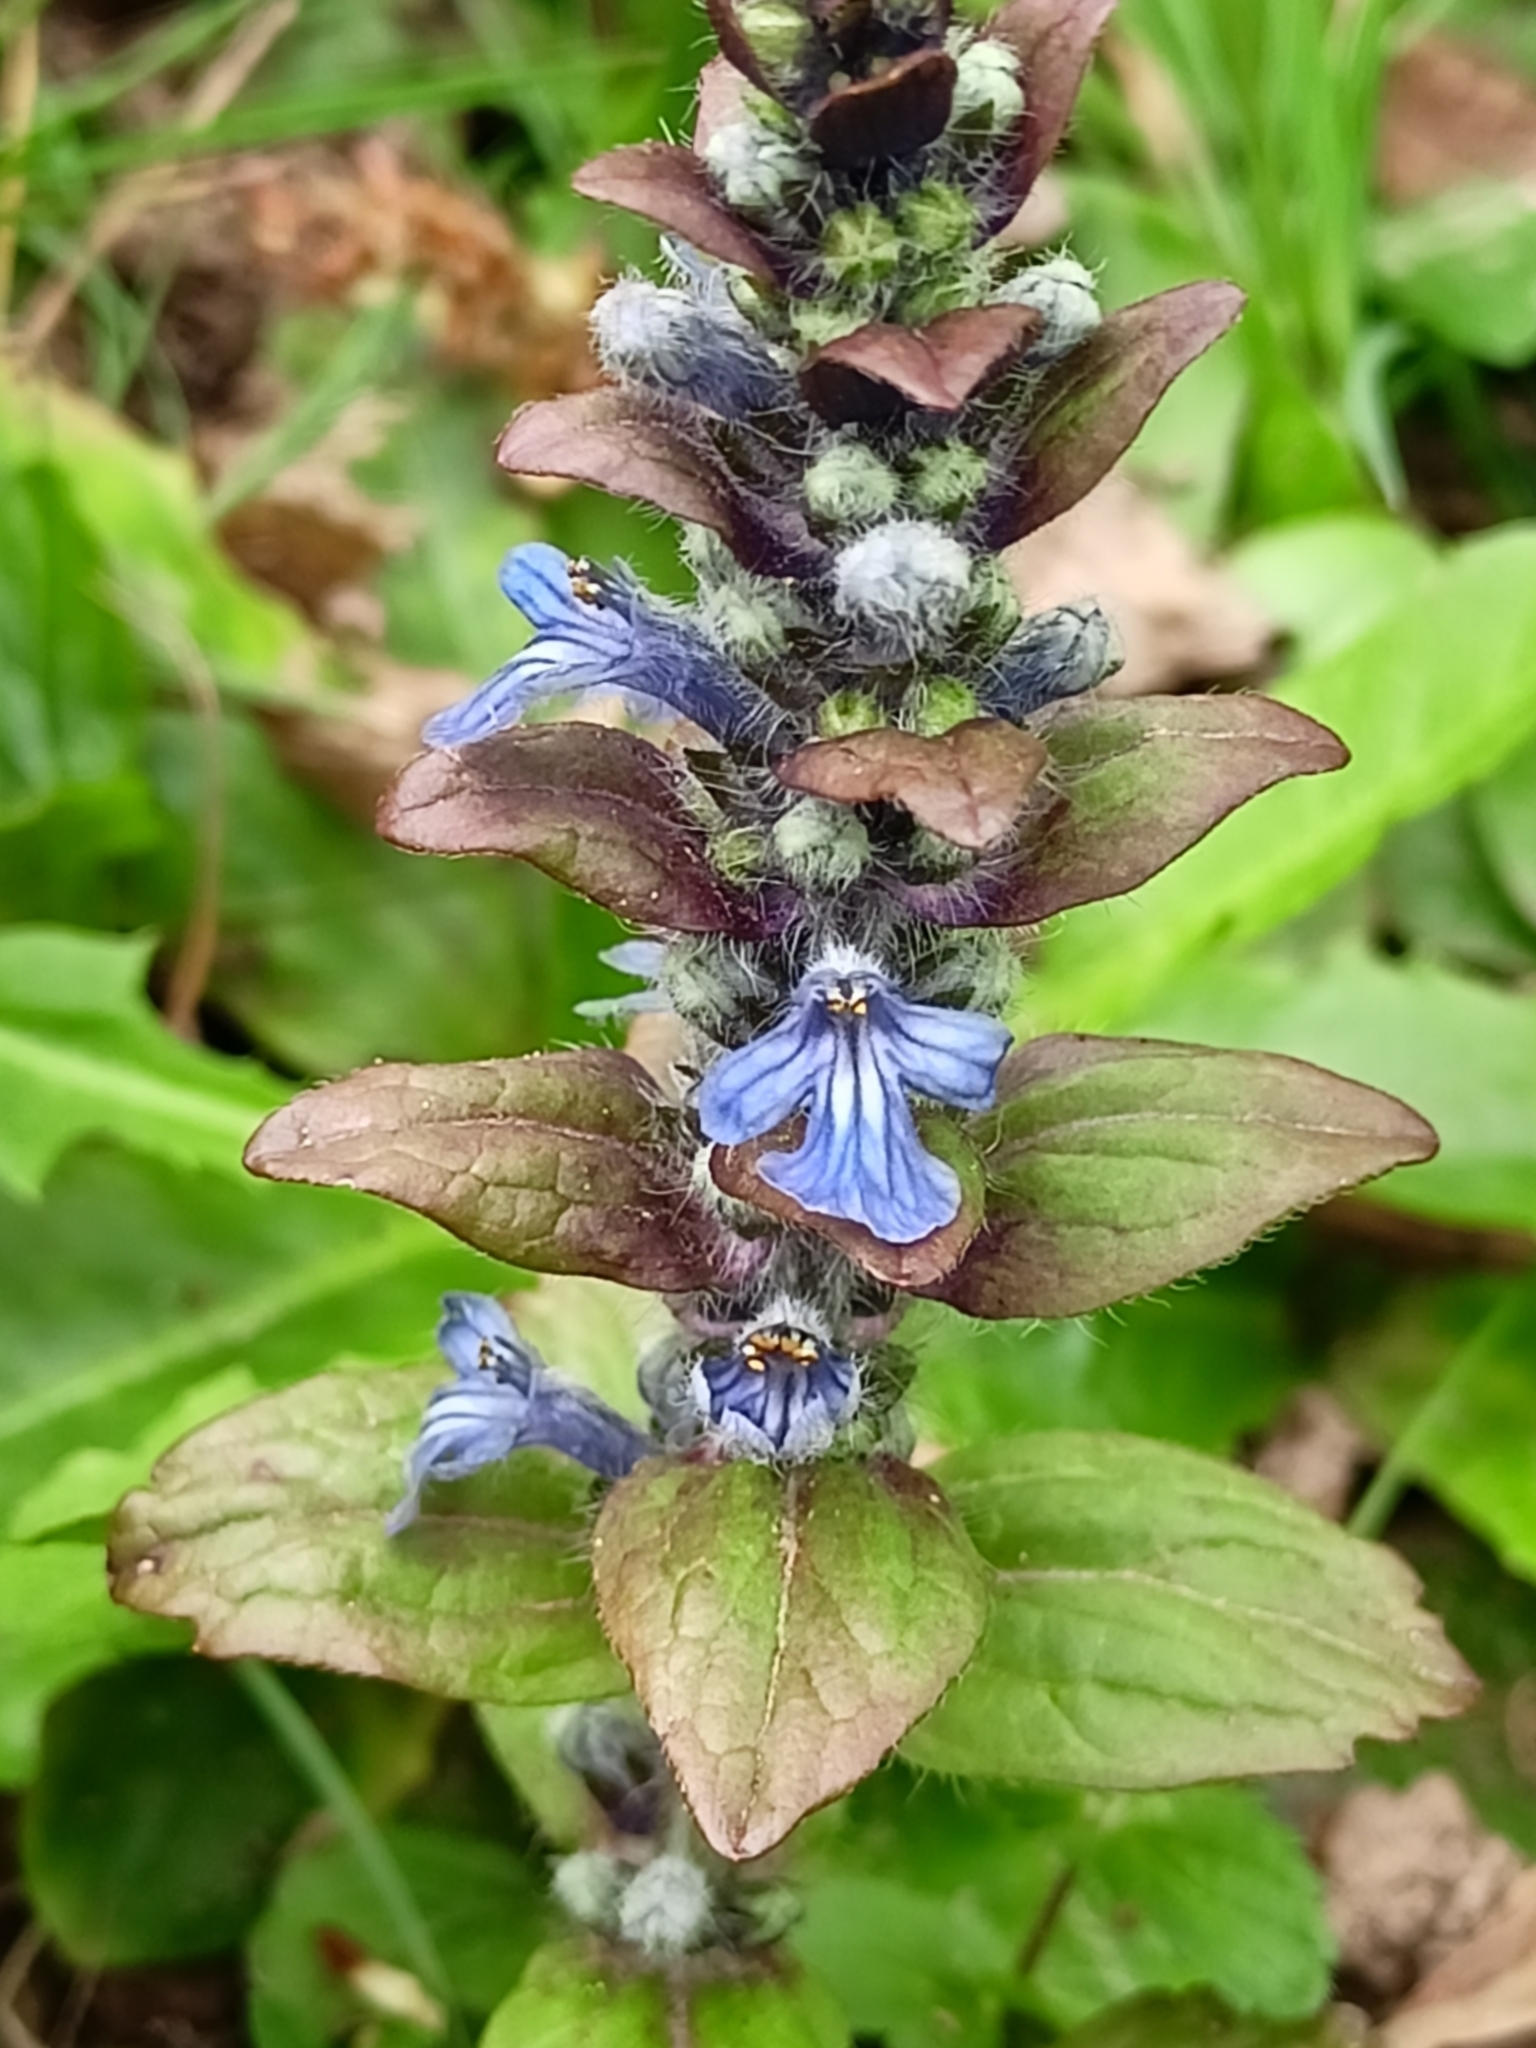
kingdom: Plantae
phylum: Tracheophyta
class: Magnoliopsida
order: Lamiales
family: Lamiaceae
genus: Ajuga
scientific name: Ajuga reptans
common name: Bugle
